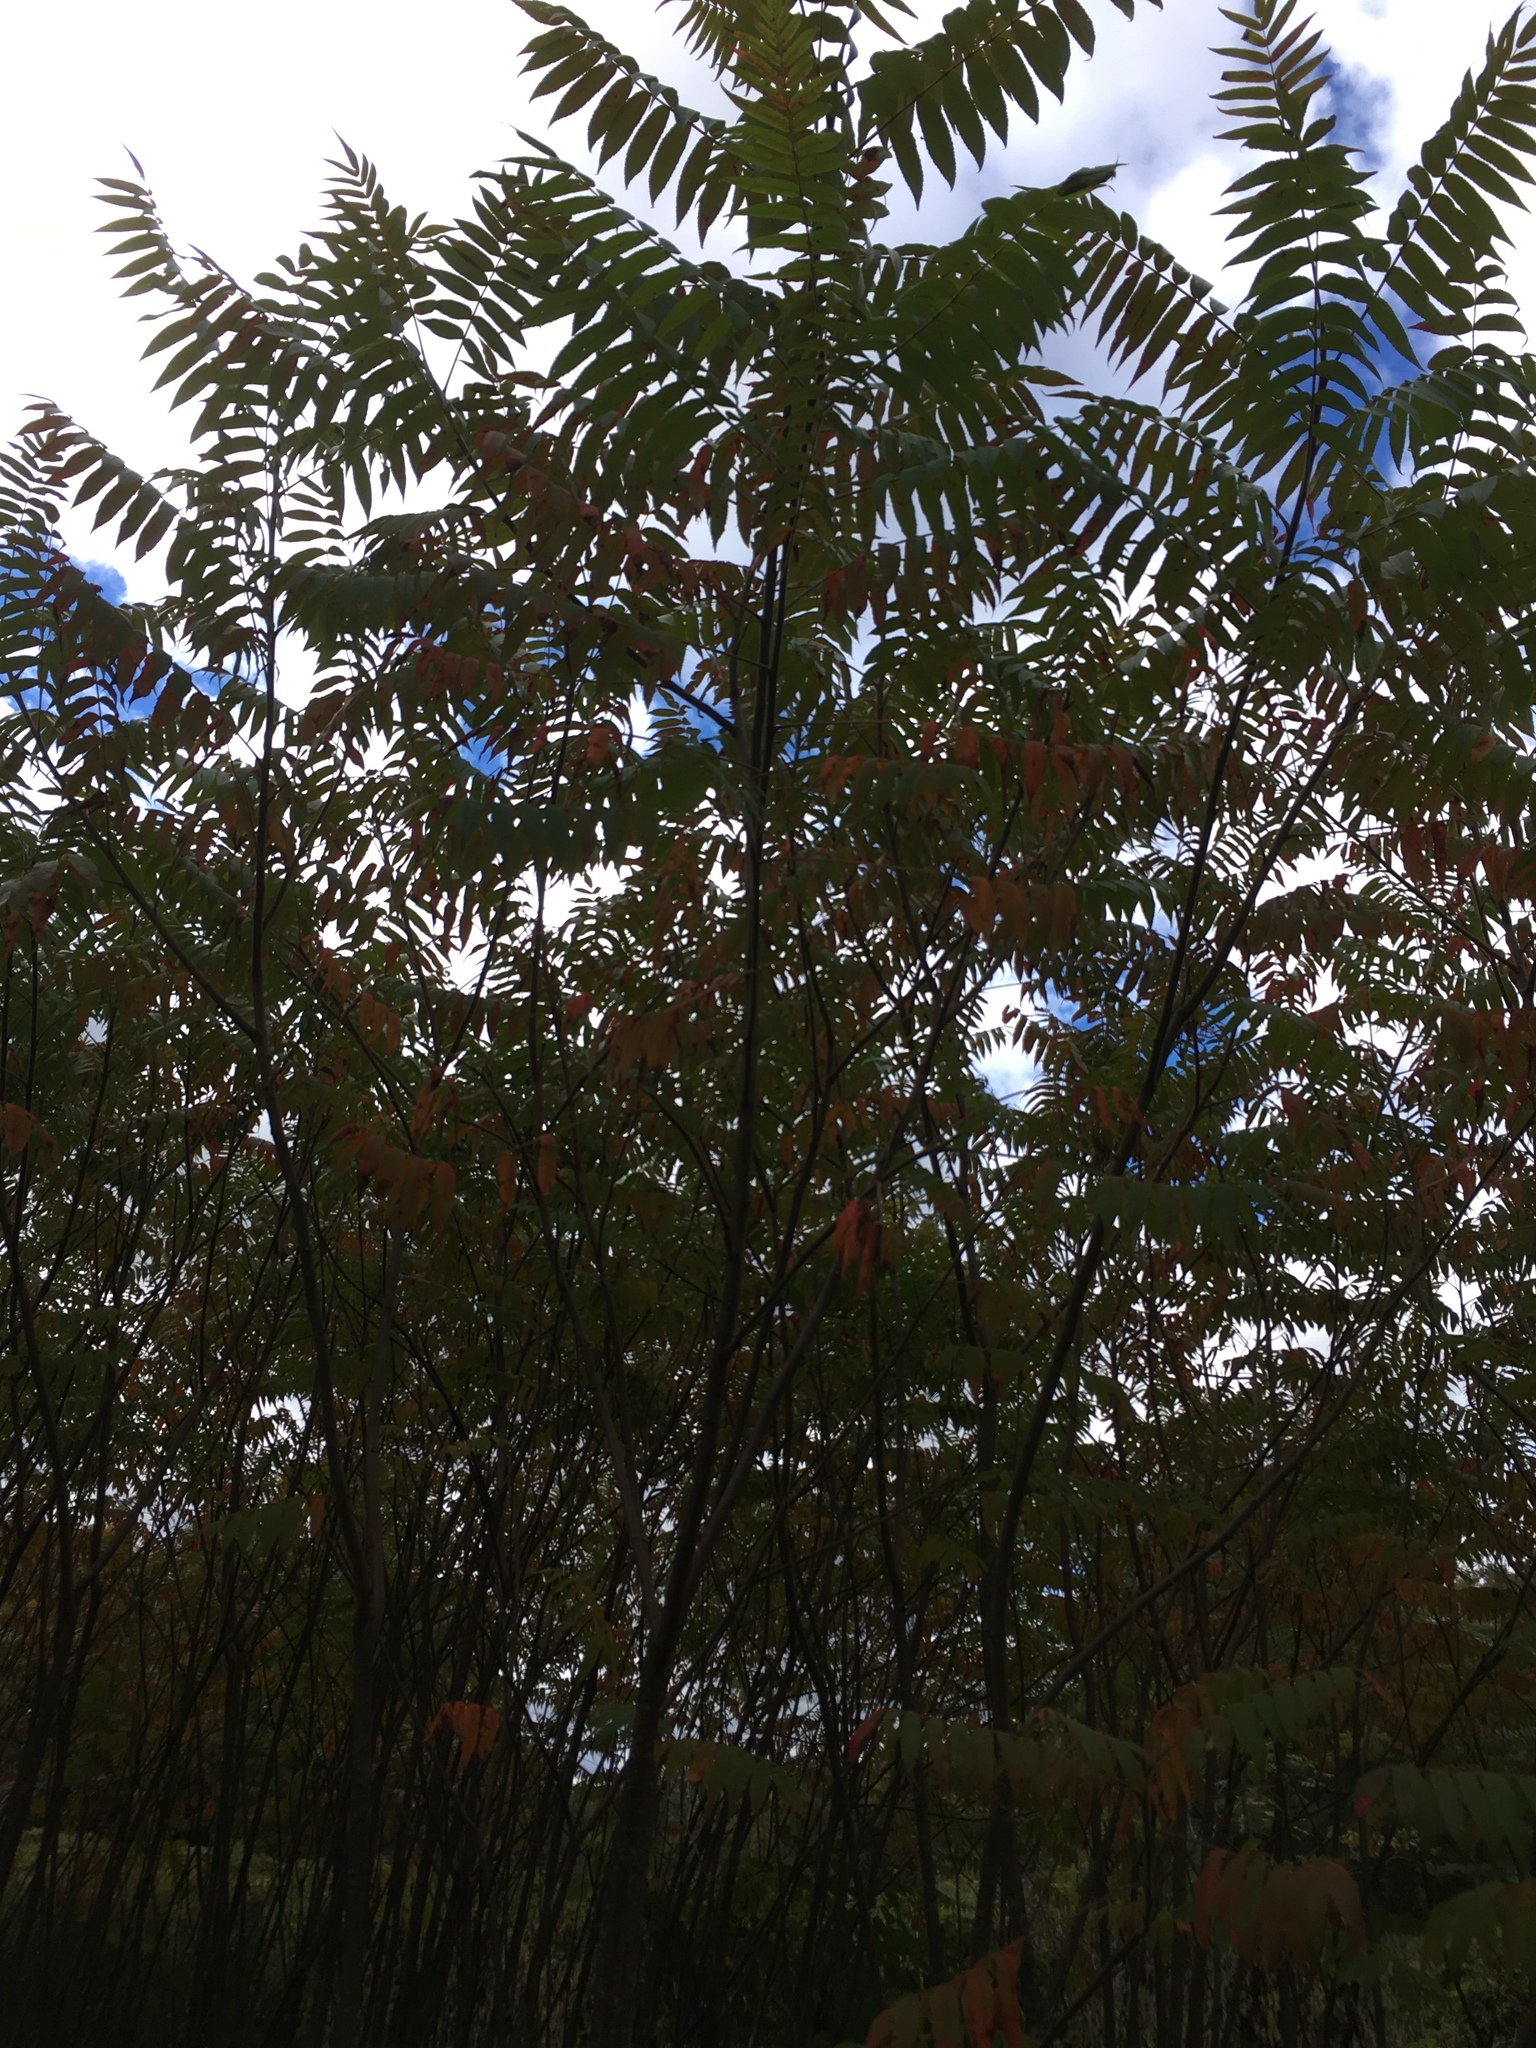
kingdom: Plantae
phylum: Tracheophyta
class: Magnoliopsida
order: Sapindales
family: Anacardiaceae
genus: Rhus
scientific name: Rhus typhina
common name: Staghorn sumac
